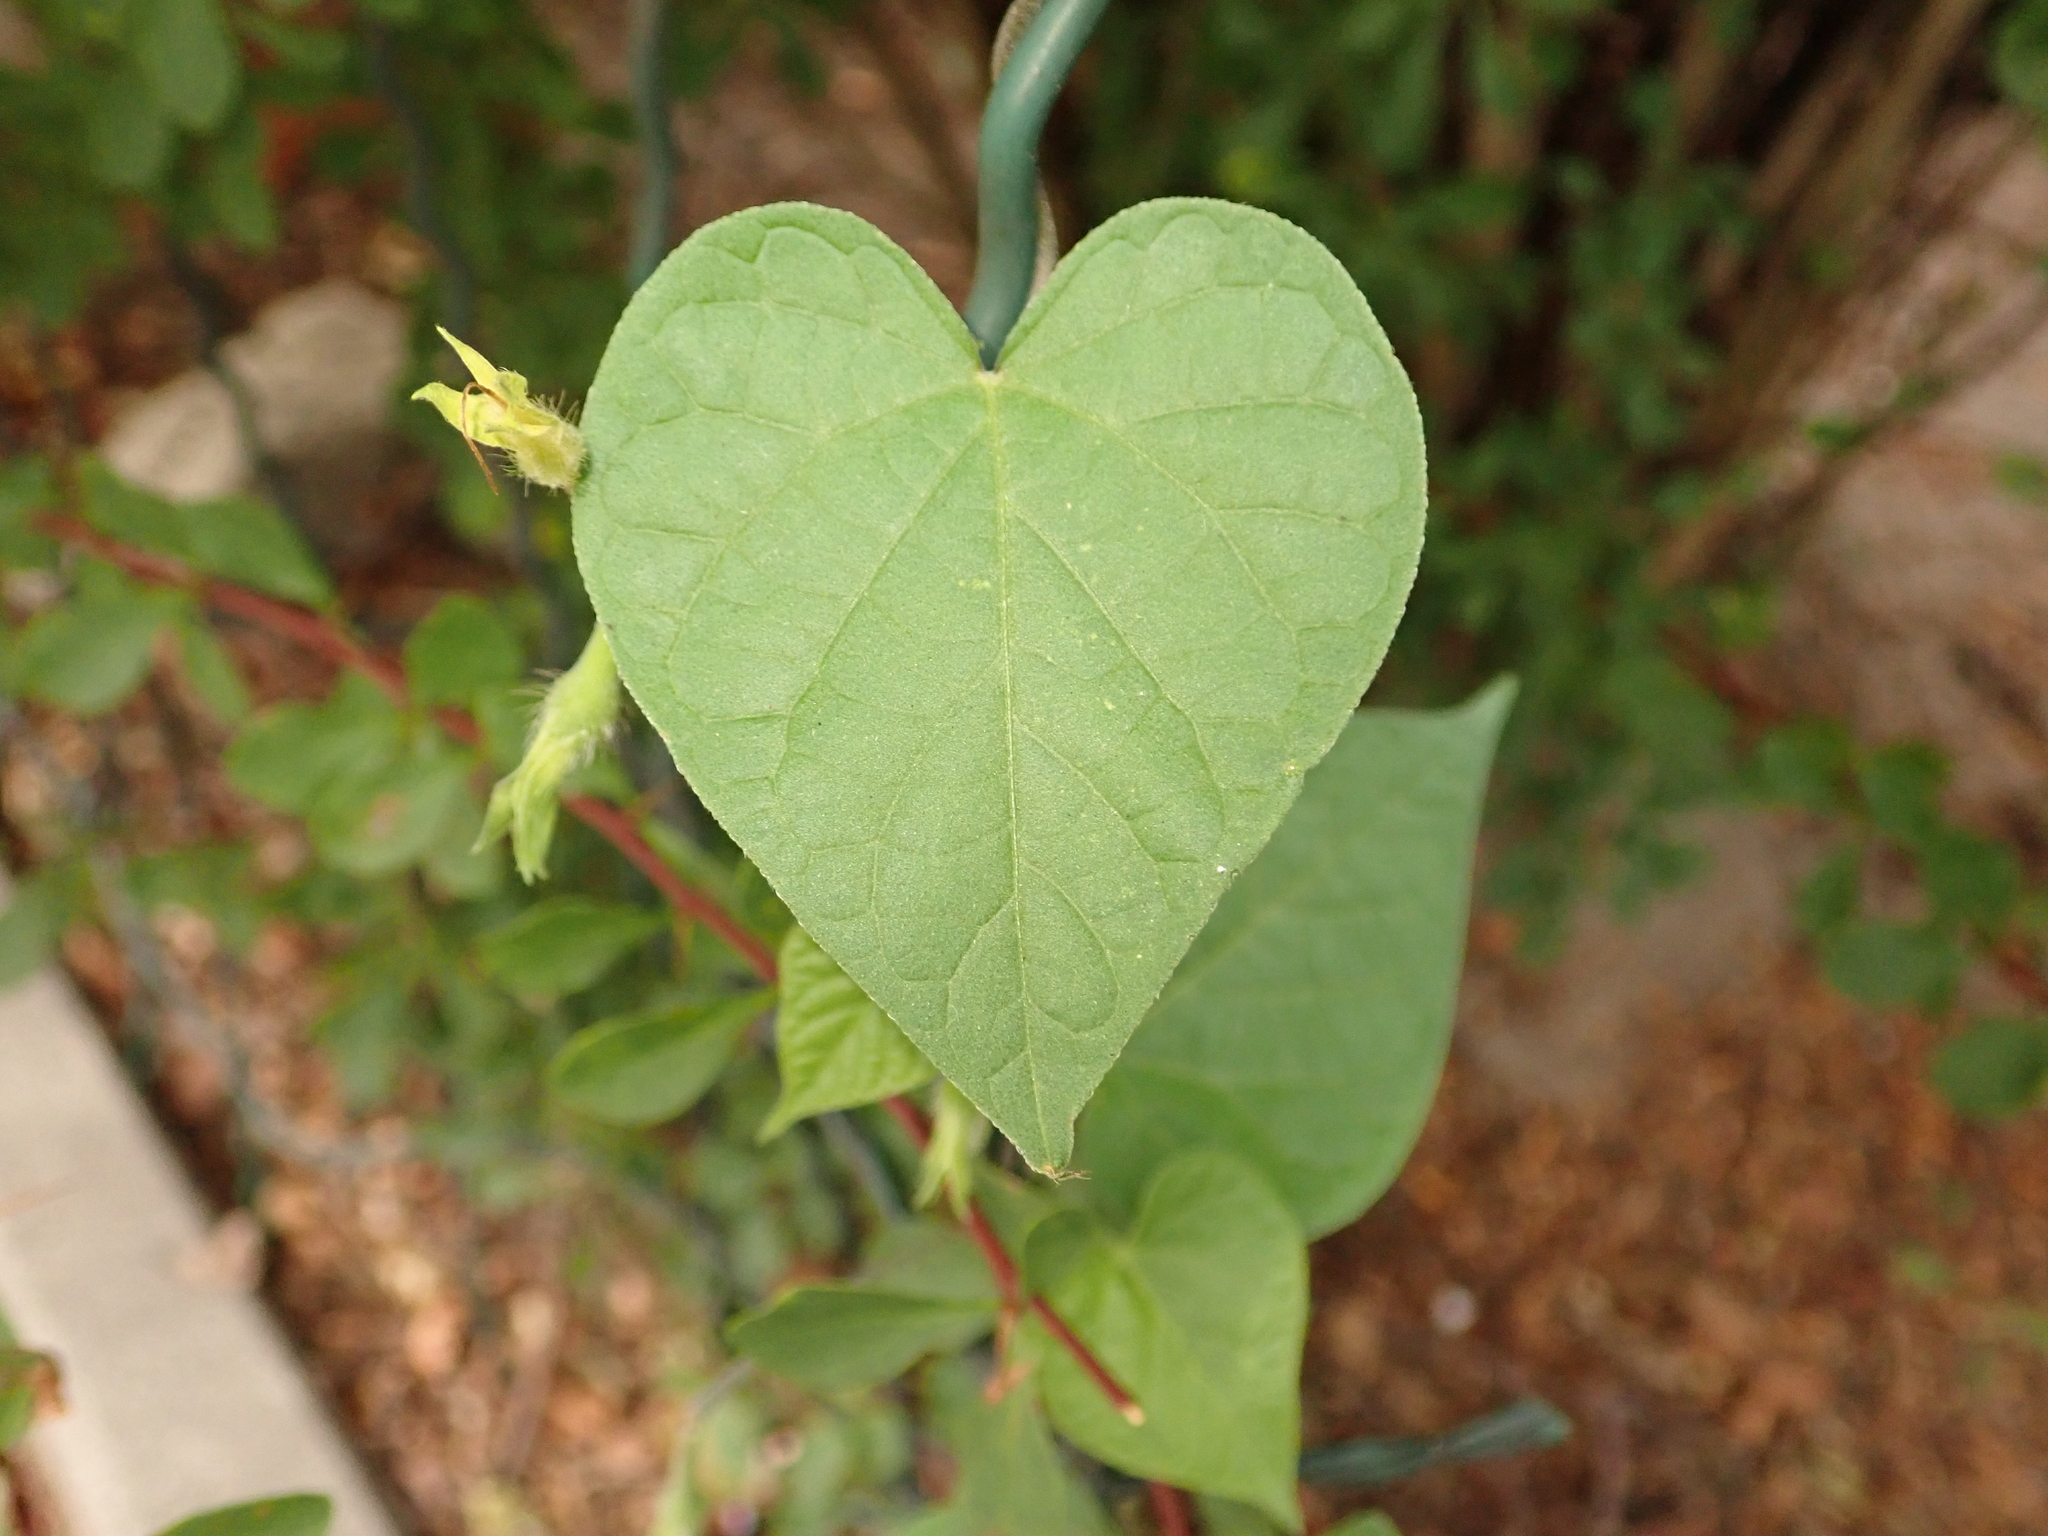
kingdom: Plantae
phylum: Tracheophyta
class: Magnoliopsida
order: Solanales
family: Convolvulaceae
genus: Ipomoea
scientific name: Ipomoea purpurea
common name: Common morning-glory
